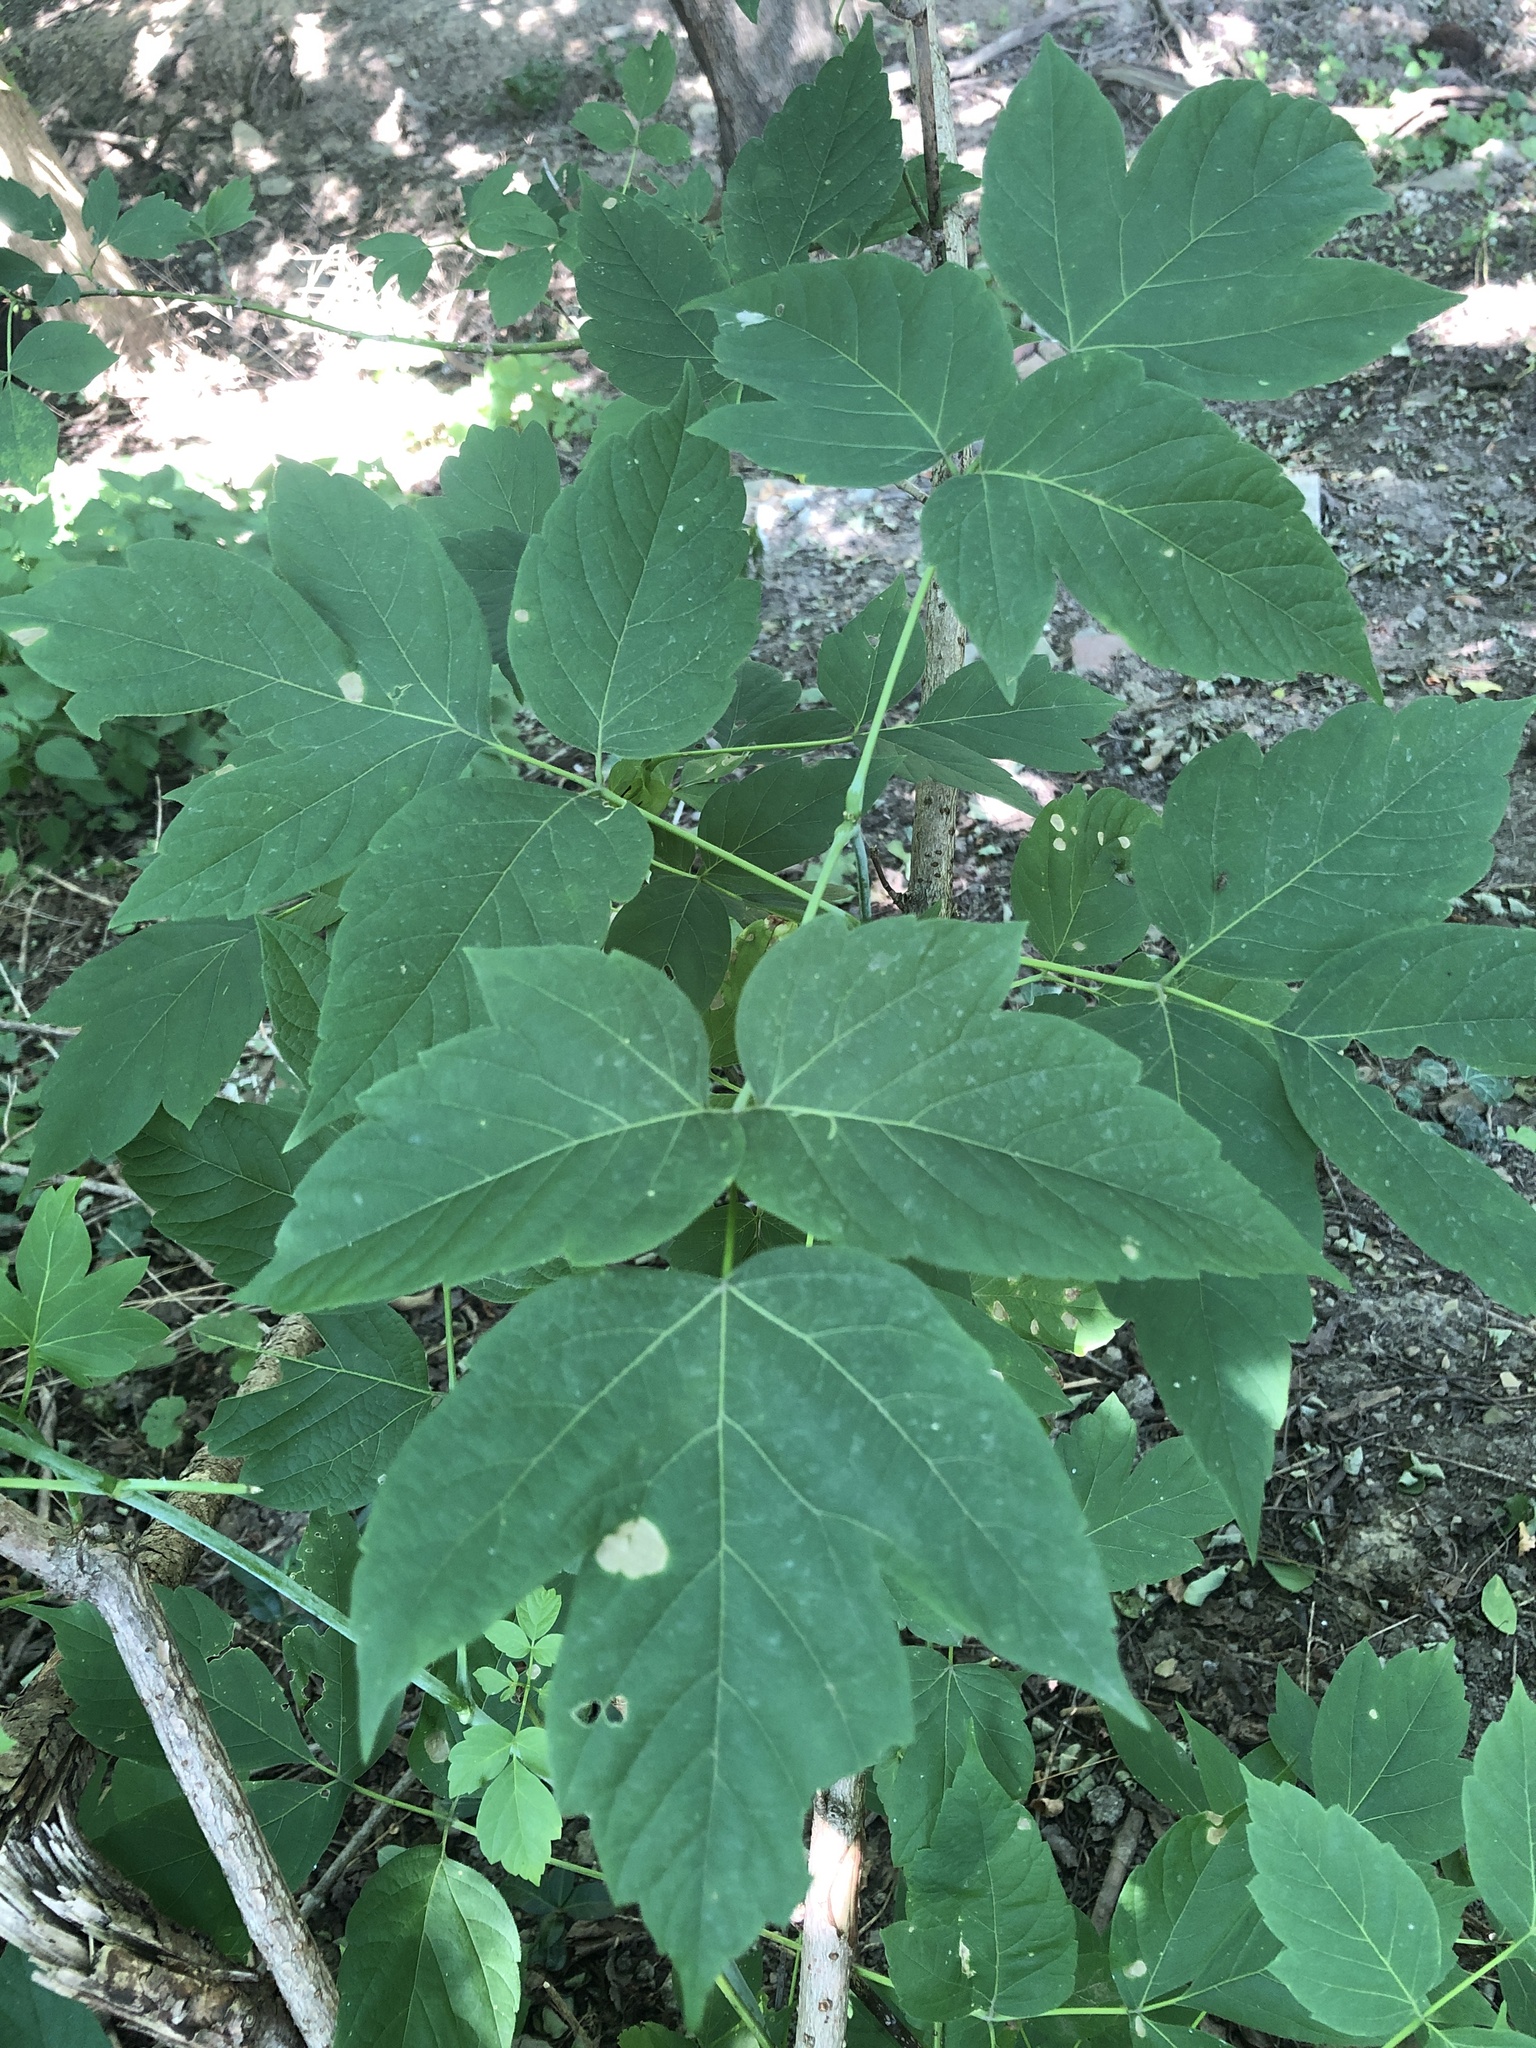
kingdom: Plantae
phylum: Tracheophyta
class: Magnoliopsida
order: Sapindales
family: Sapindaceae
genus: Acer
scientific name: Acer negundo
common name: Ashleaf maple
